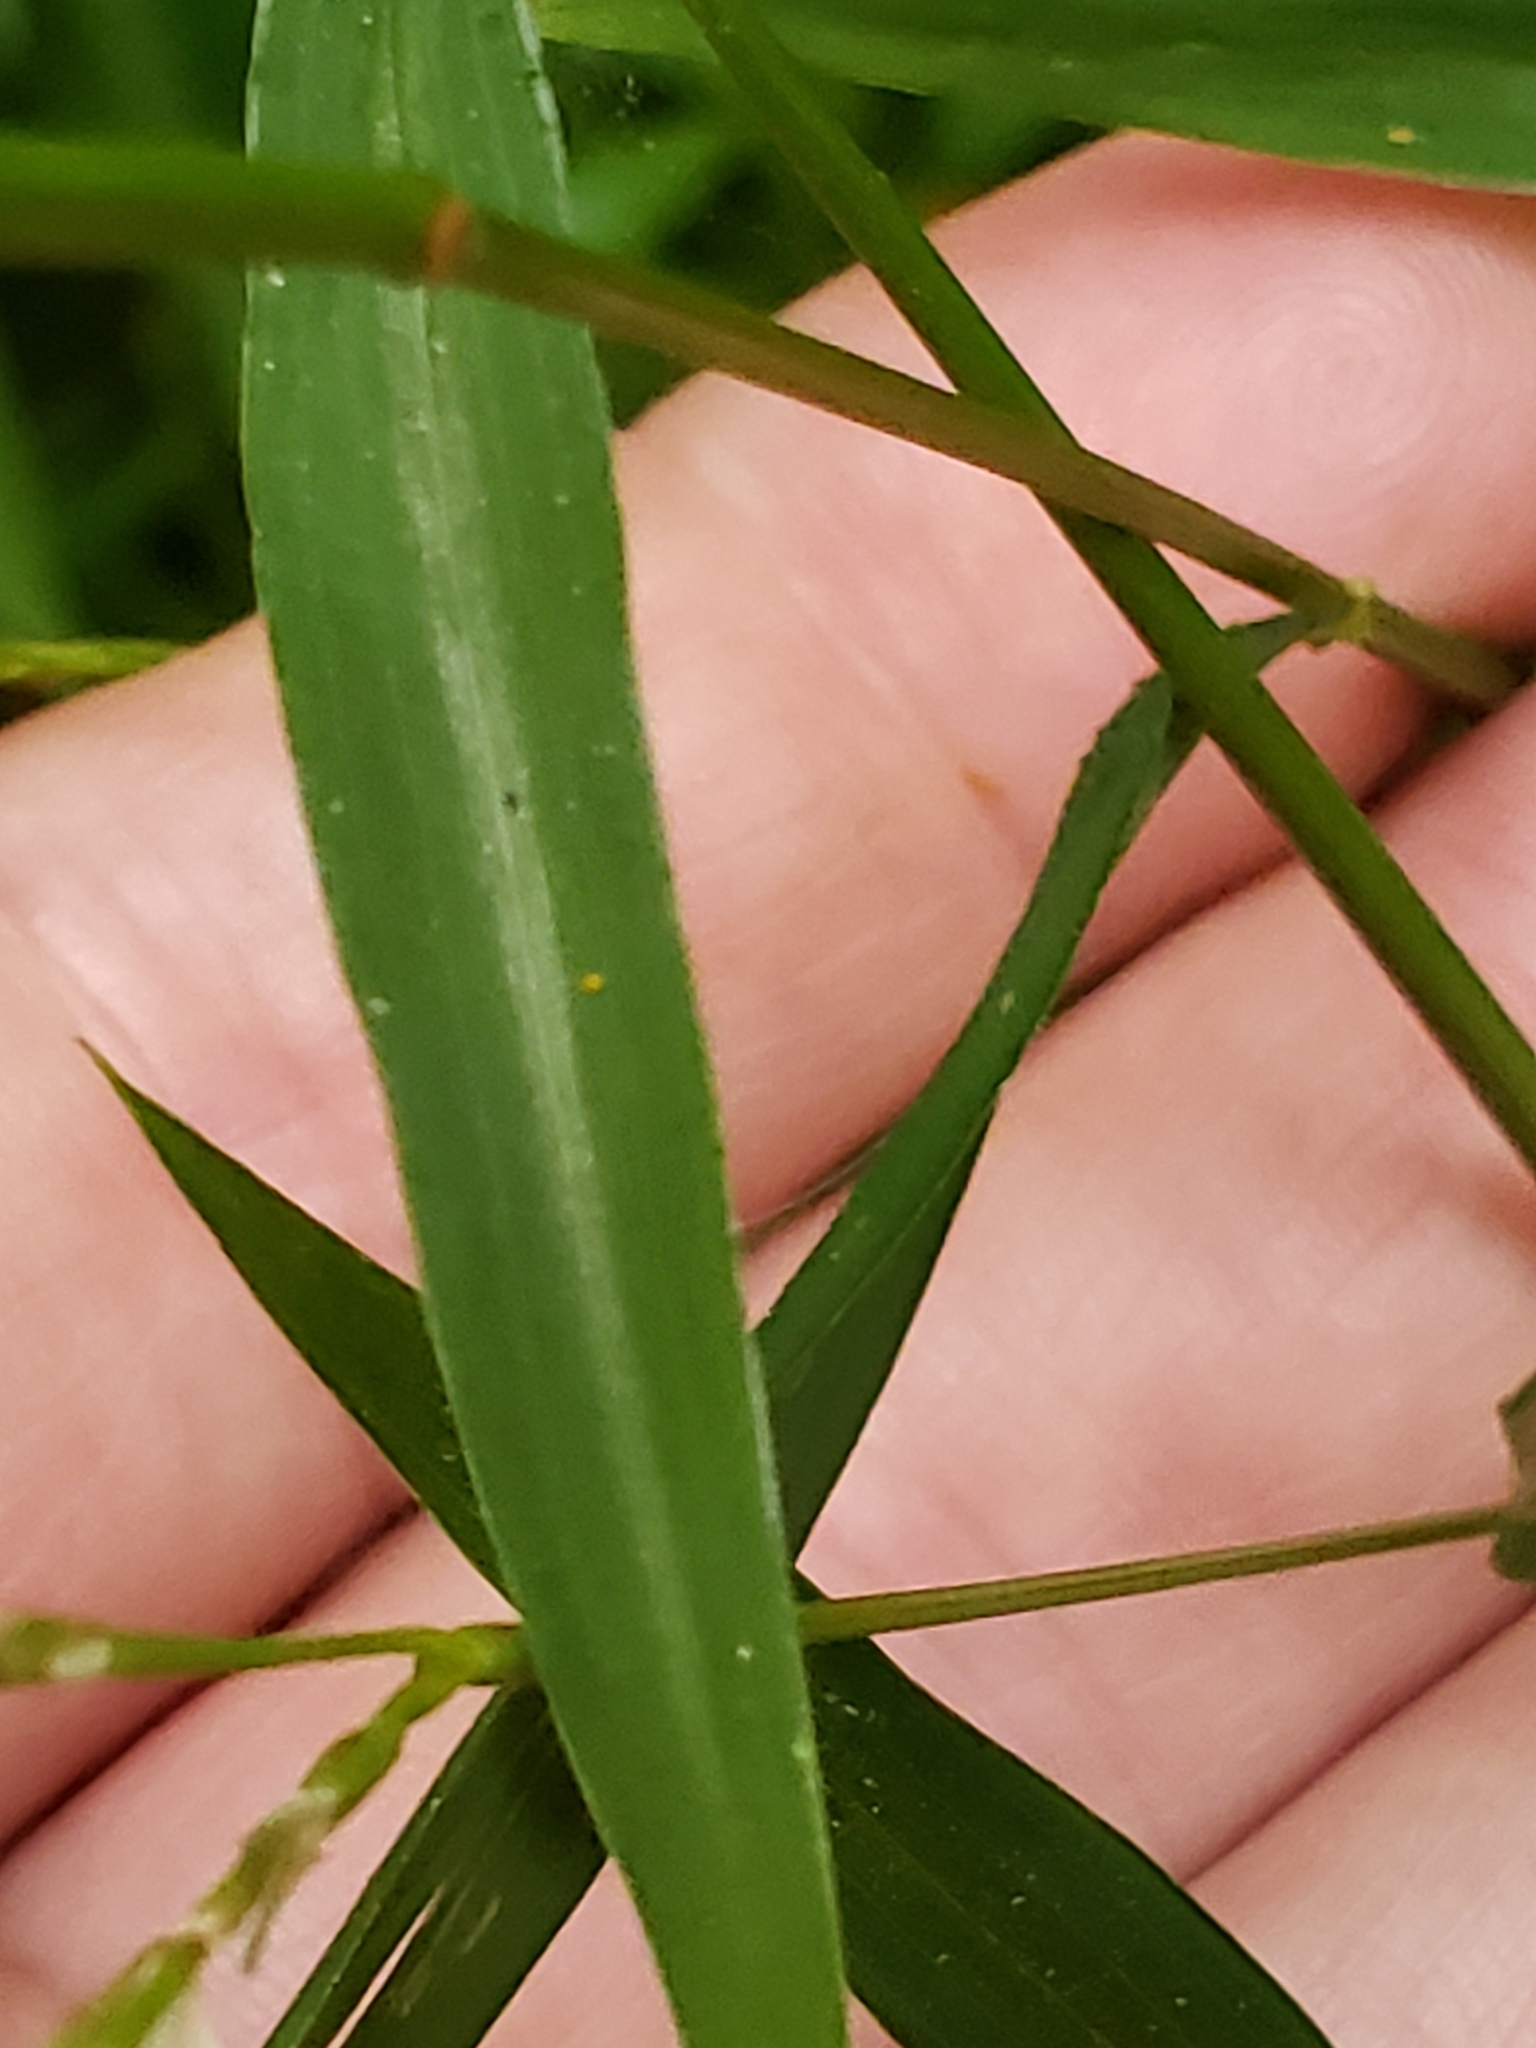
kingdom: Animalia
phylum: Arthropoda
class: Insecta
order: Lepidoptera
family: Erebidae
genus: Spilosoma
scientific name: Spilosoma virginica
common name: Virginia tiger moth
